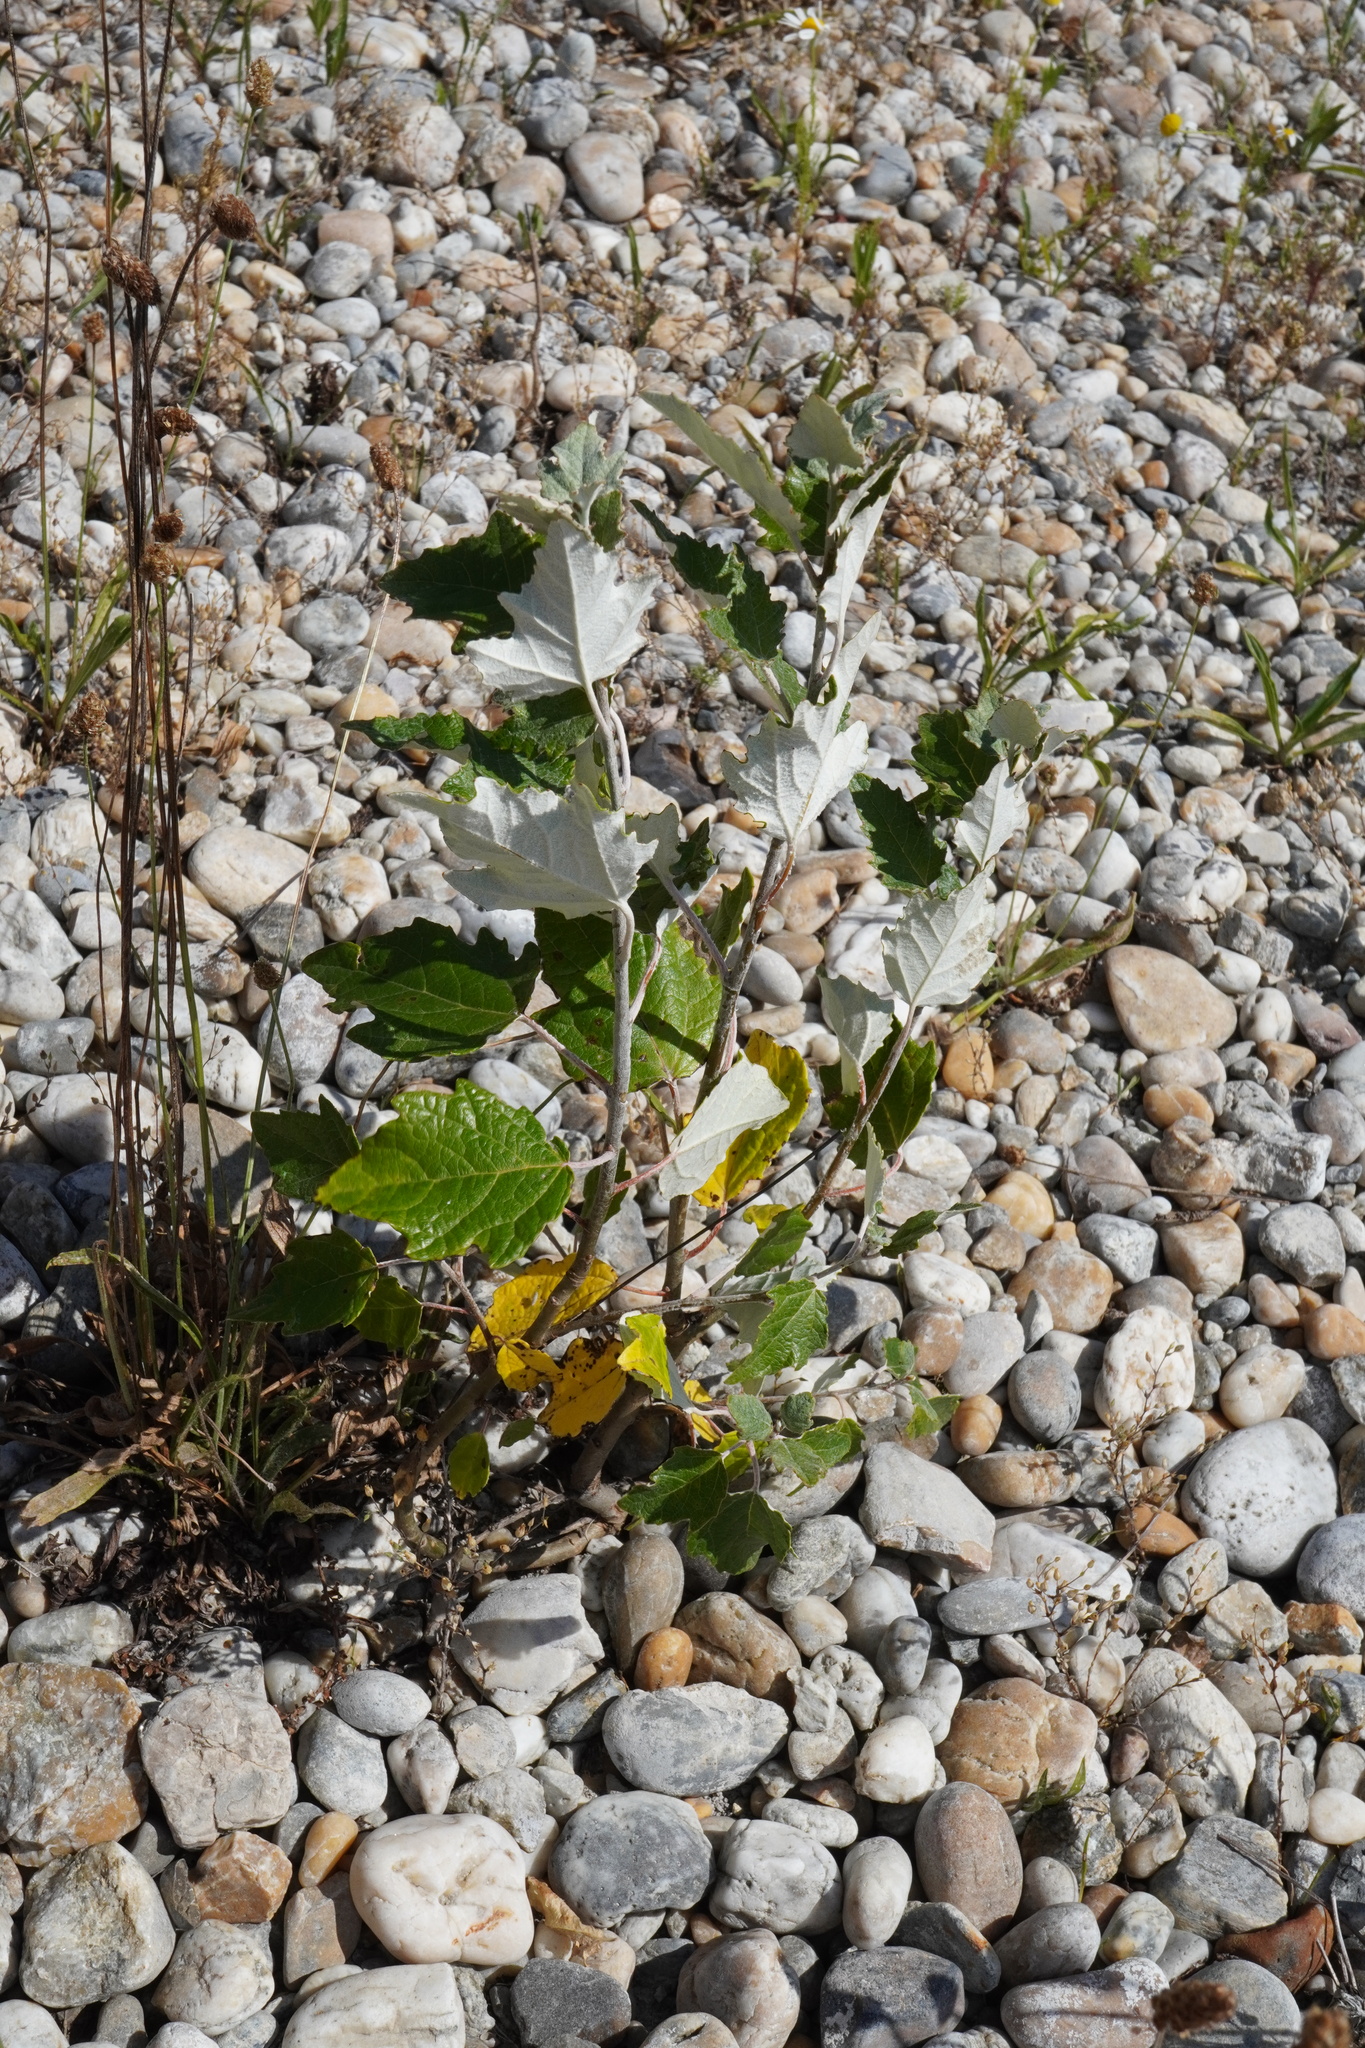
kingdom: Plantae
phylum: Tracheophyta
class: Magnoliopsida
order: Malpighiales
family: Salicaceae
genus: Populus
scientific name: Populus alba
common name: White poplar
